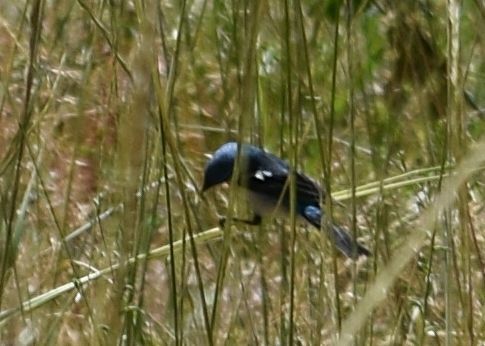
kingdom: Animalia
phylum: Chordata
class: Aves
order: Passeriformes
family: Cardinalidae
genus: Passerina
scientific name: Passerina amoena
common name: Lazuli bunting
